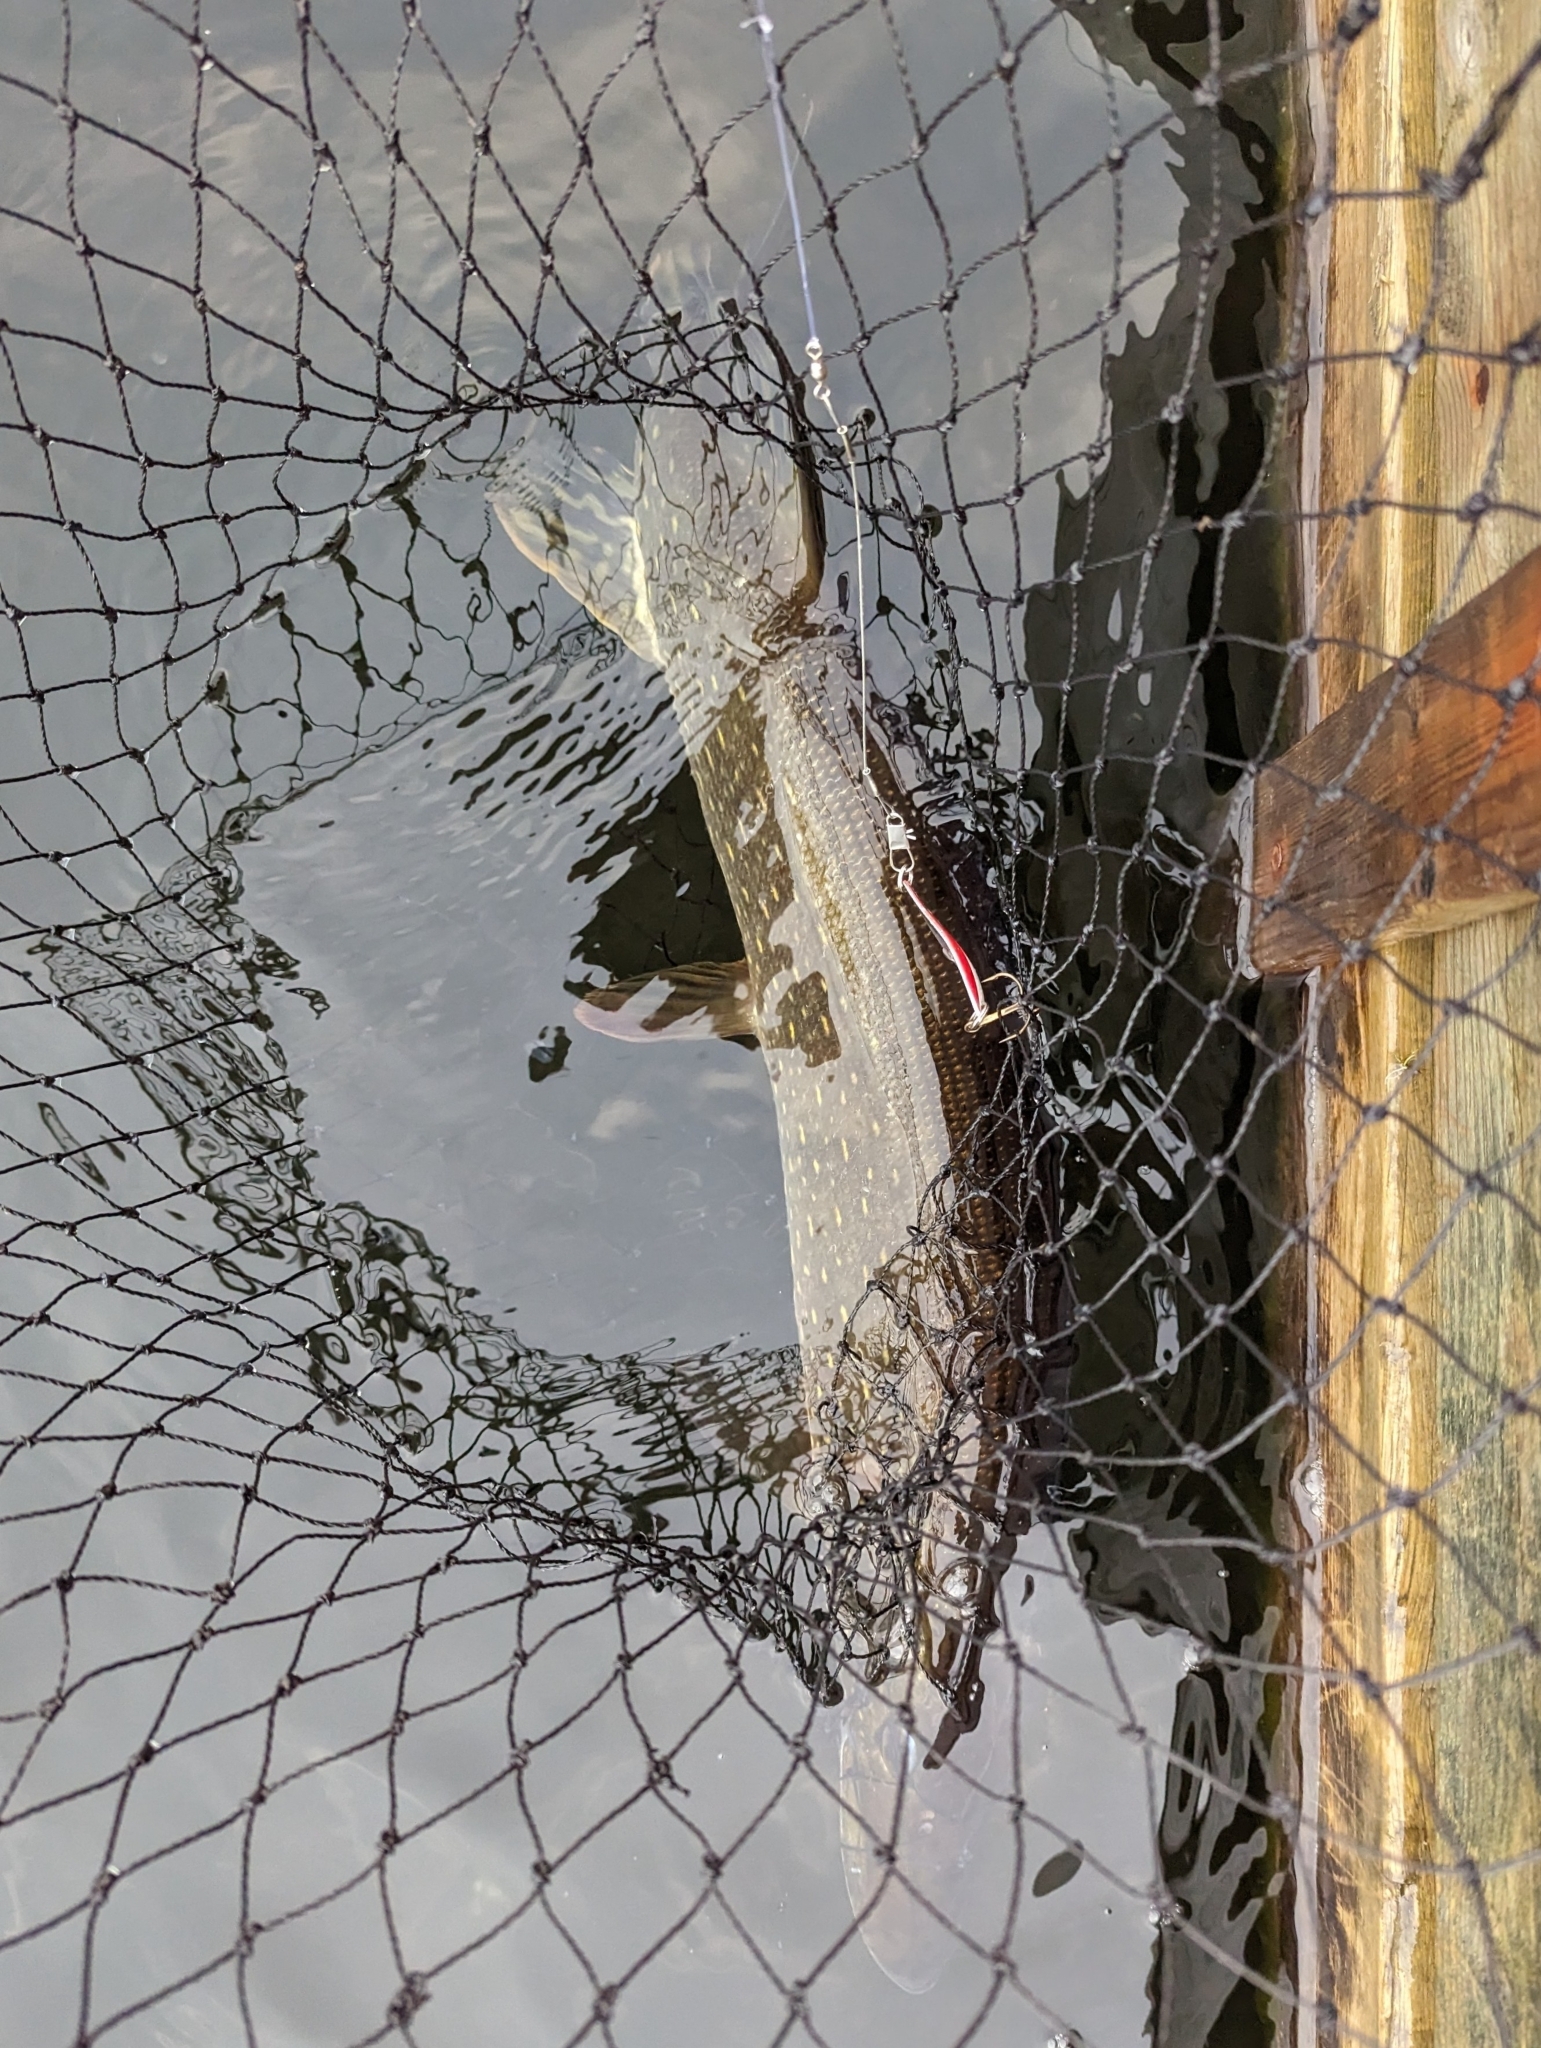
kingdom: Animalia
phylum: Chordata
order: Esociformes
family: Esocidae
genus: Esox
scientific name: Esox lucius
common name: Northern pike
